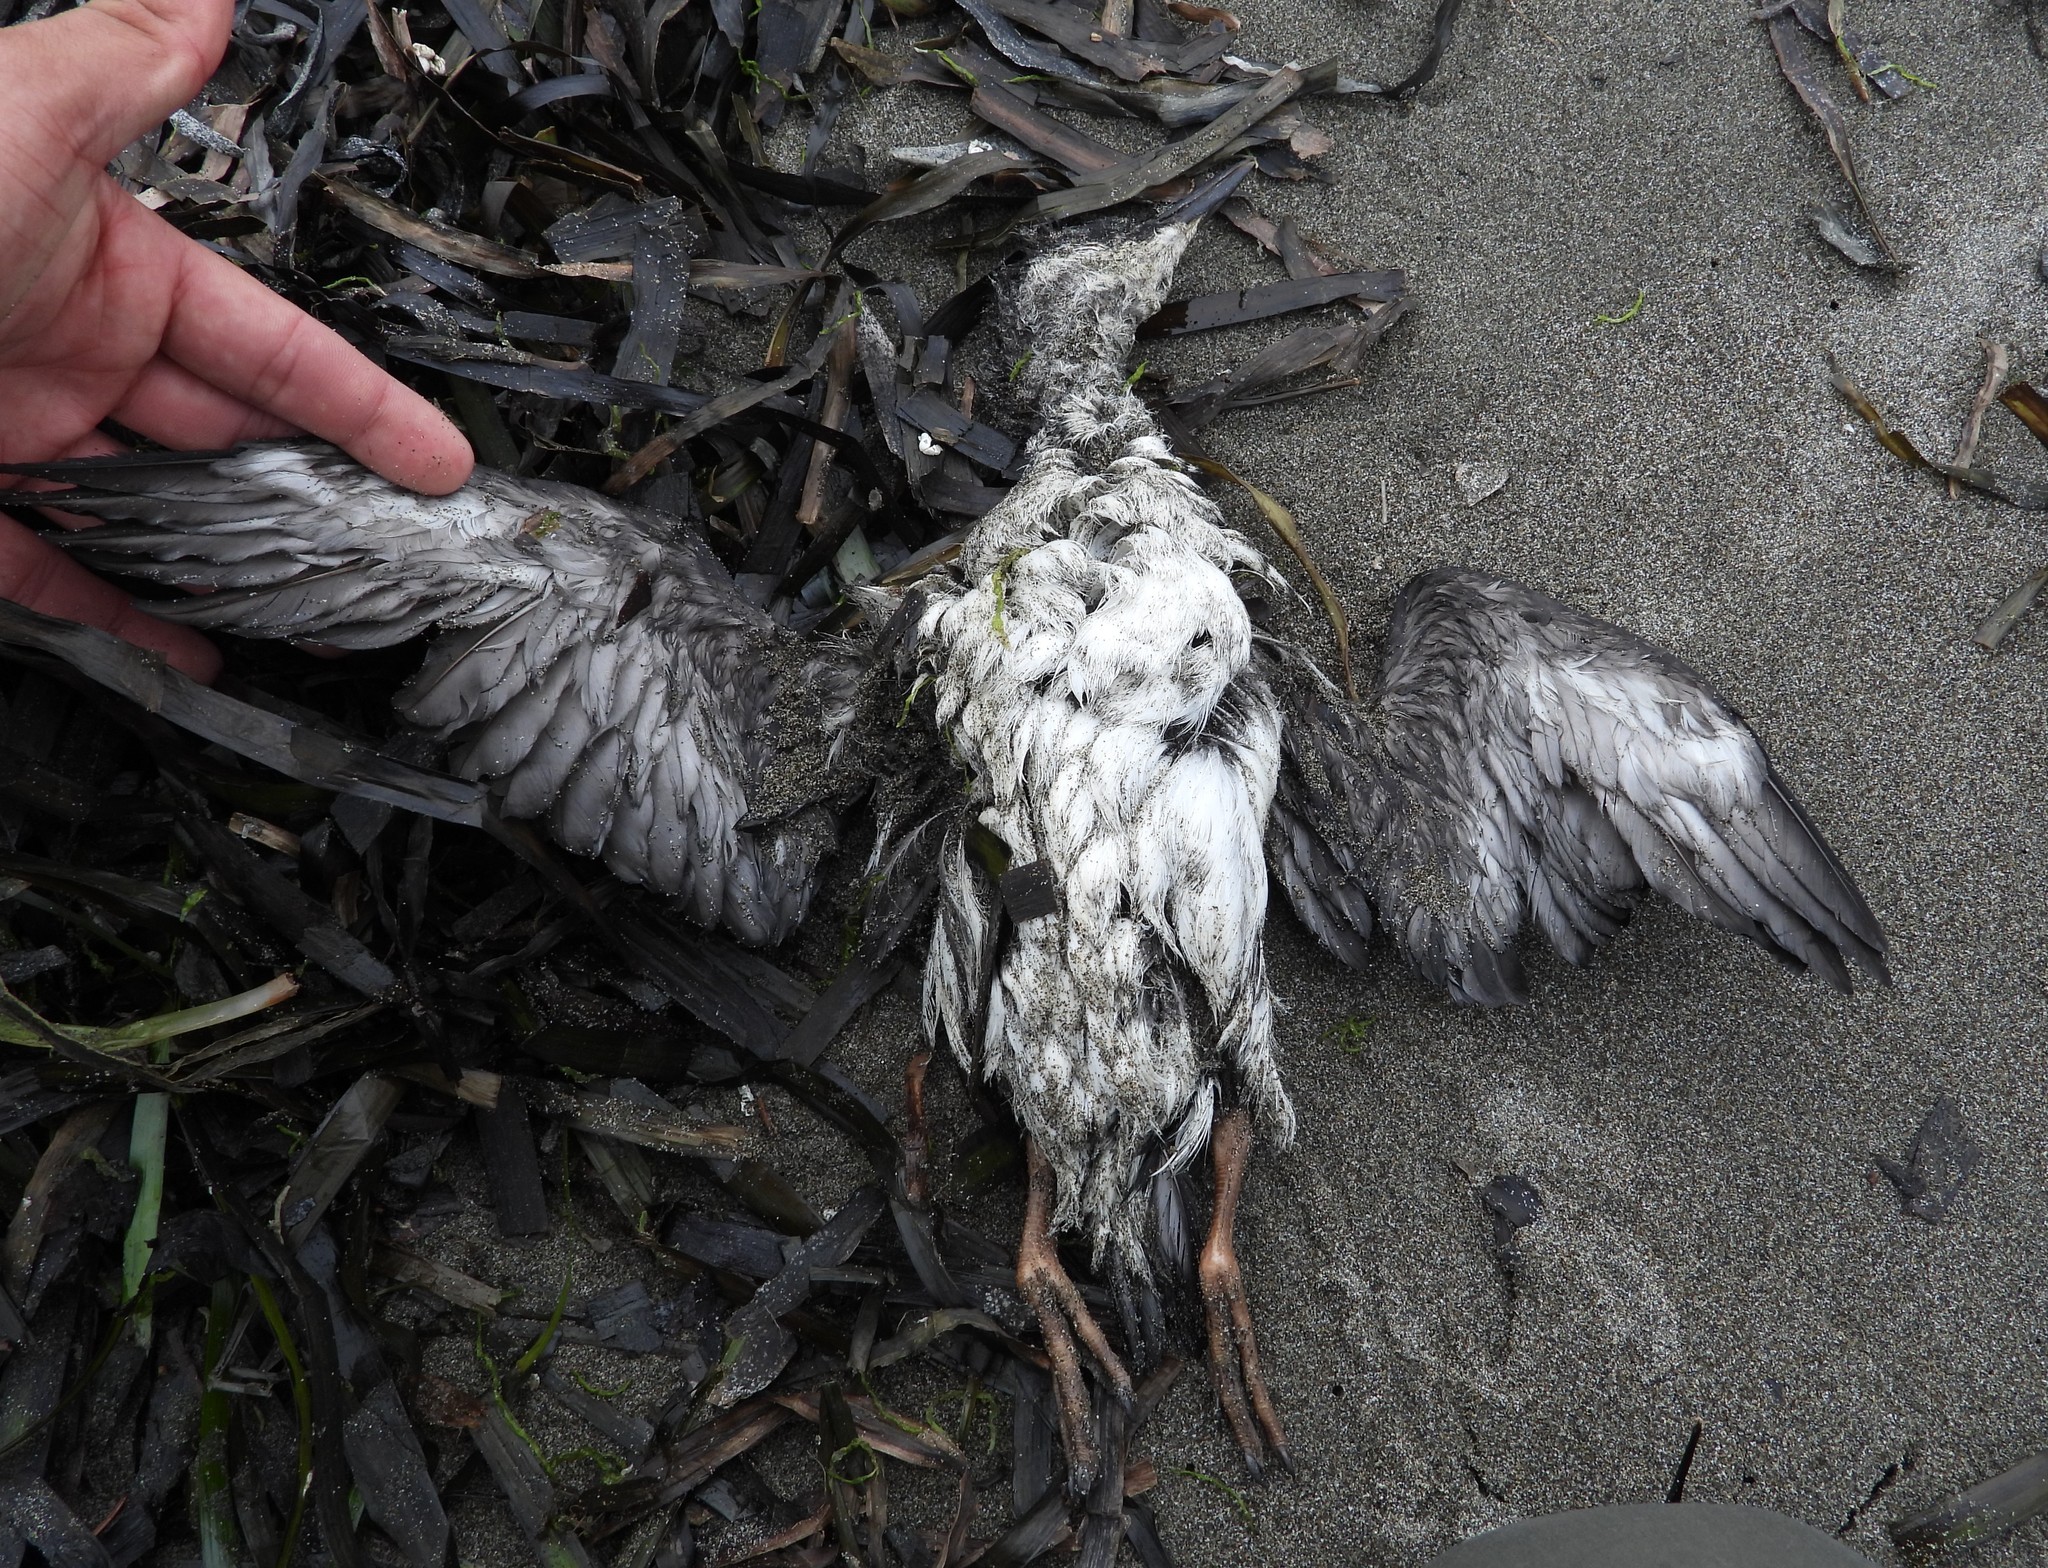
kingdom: Animalia
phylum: Chordata
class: Aves
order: Charadriiformes
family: Alcidae
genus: Cepphus
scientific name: Cepphus columba
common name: Pigeon guillemot
